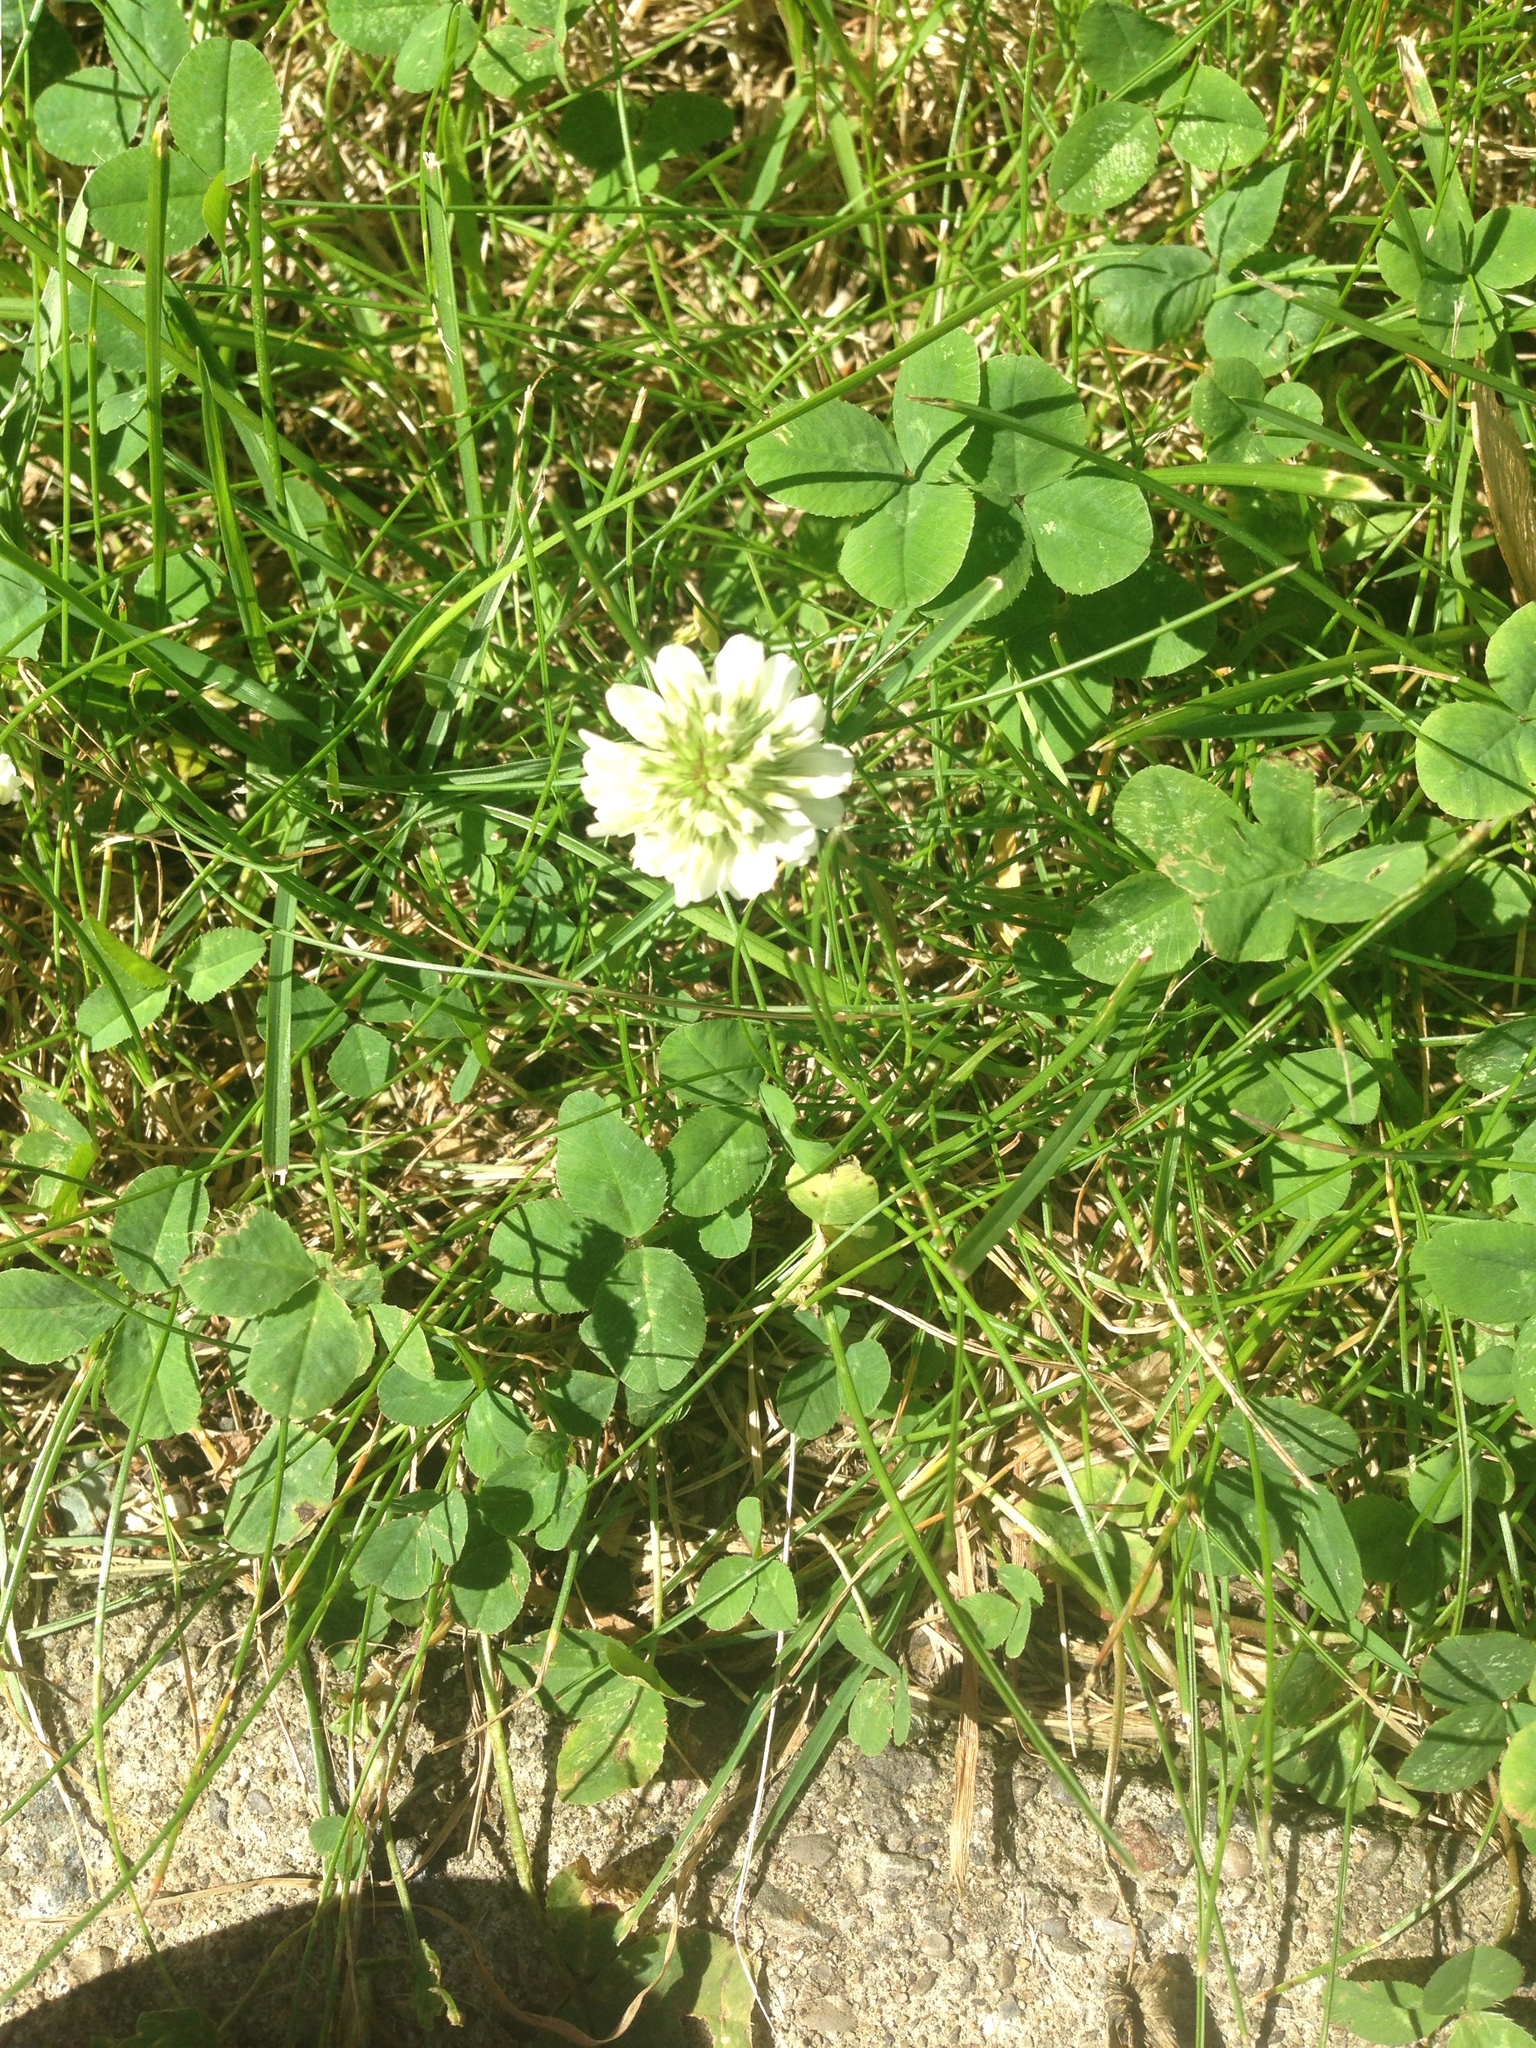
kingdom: Plantae
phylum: Tracheophyta
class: Magnoliopsida
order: Fabales
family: Fabaceae
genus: Trifolium
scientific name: Trifolium repens
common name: White clover
